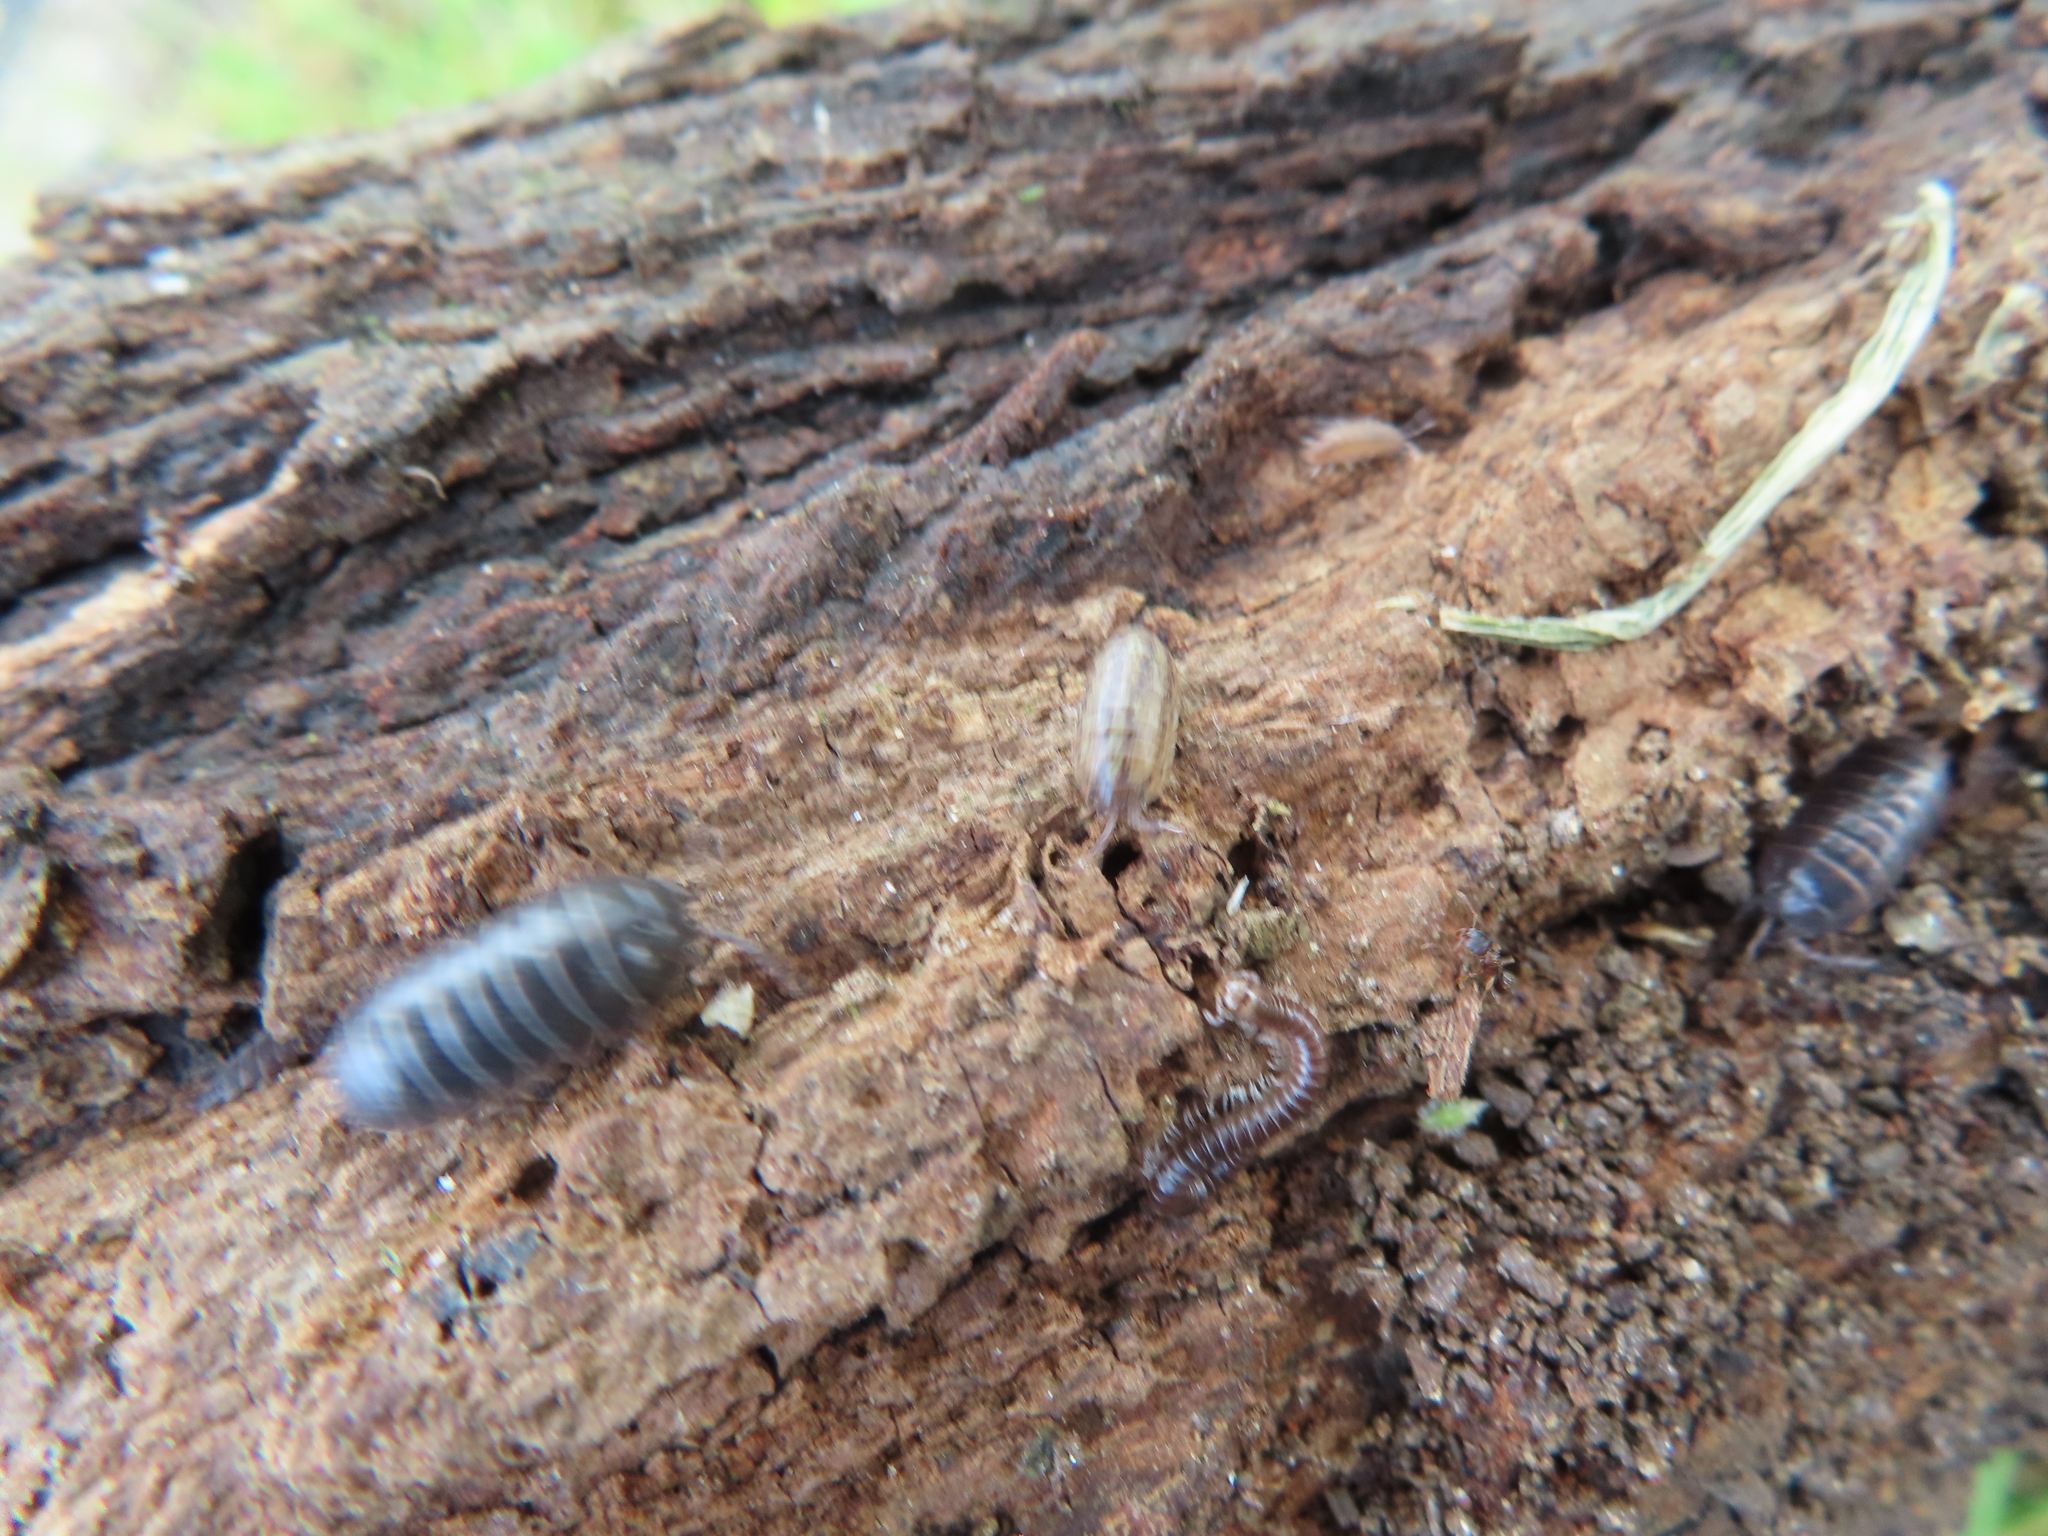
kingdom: Animalia
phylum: Arthropoda
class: Malacostraca
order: Isopoda
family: Armadillidiidae
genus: Armadillidium
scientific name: Armadillidium vulgare
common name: Common pill woodlouse
